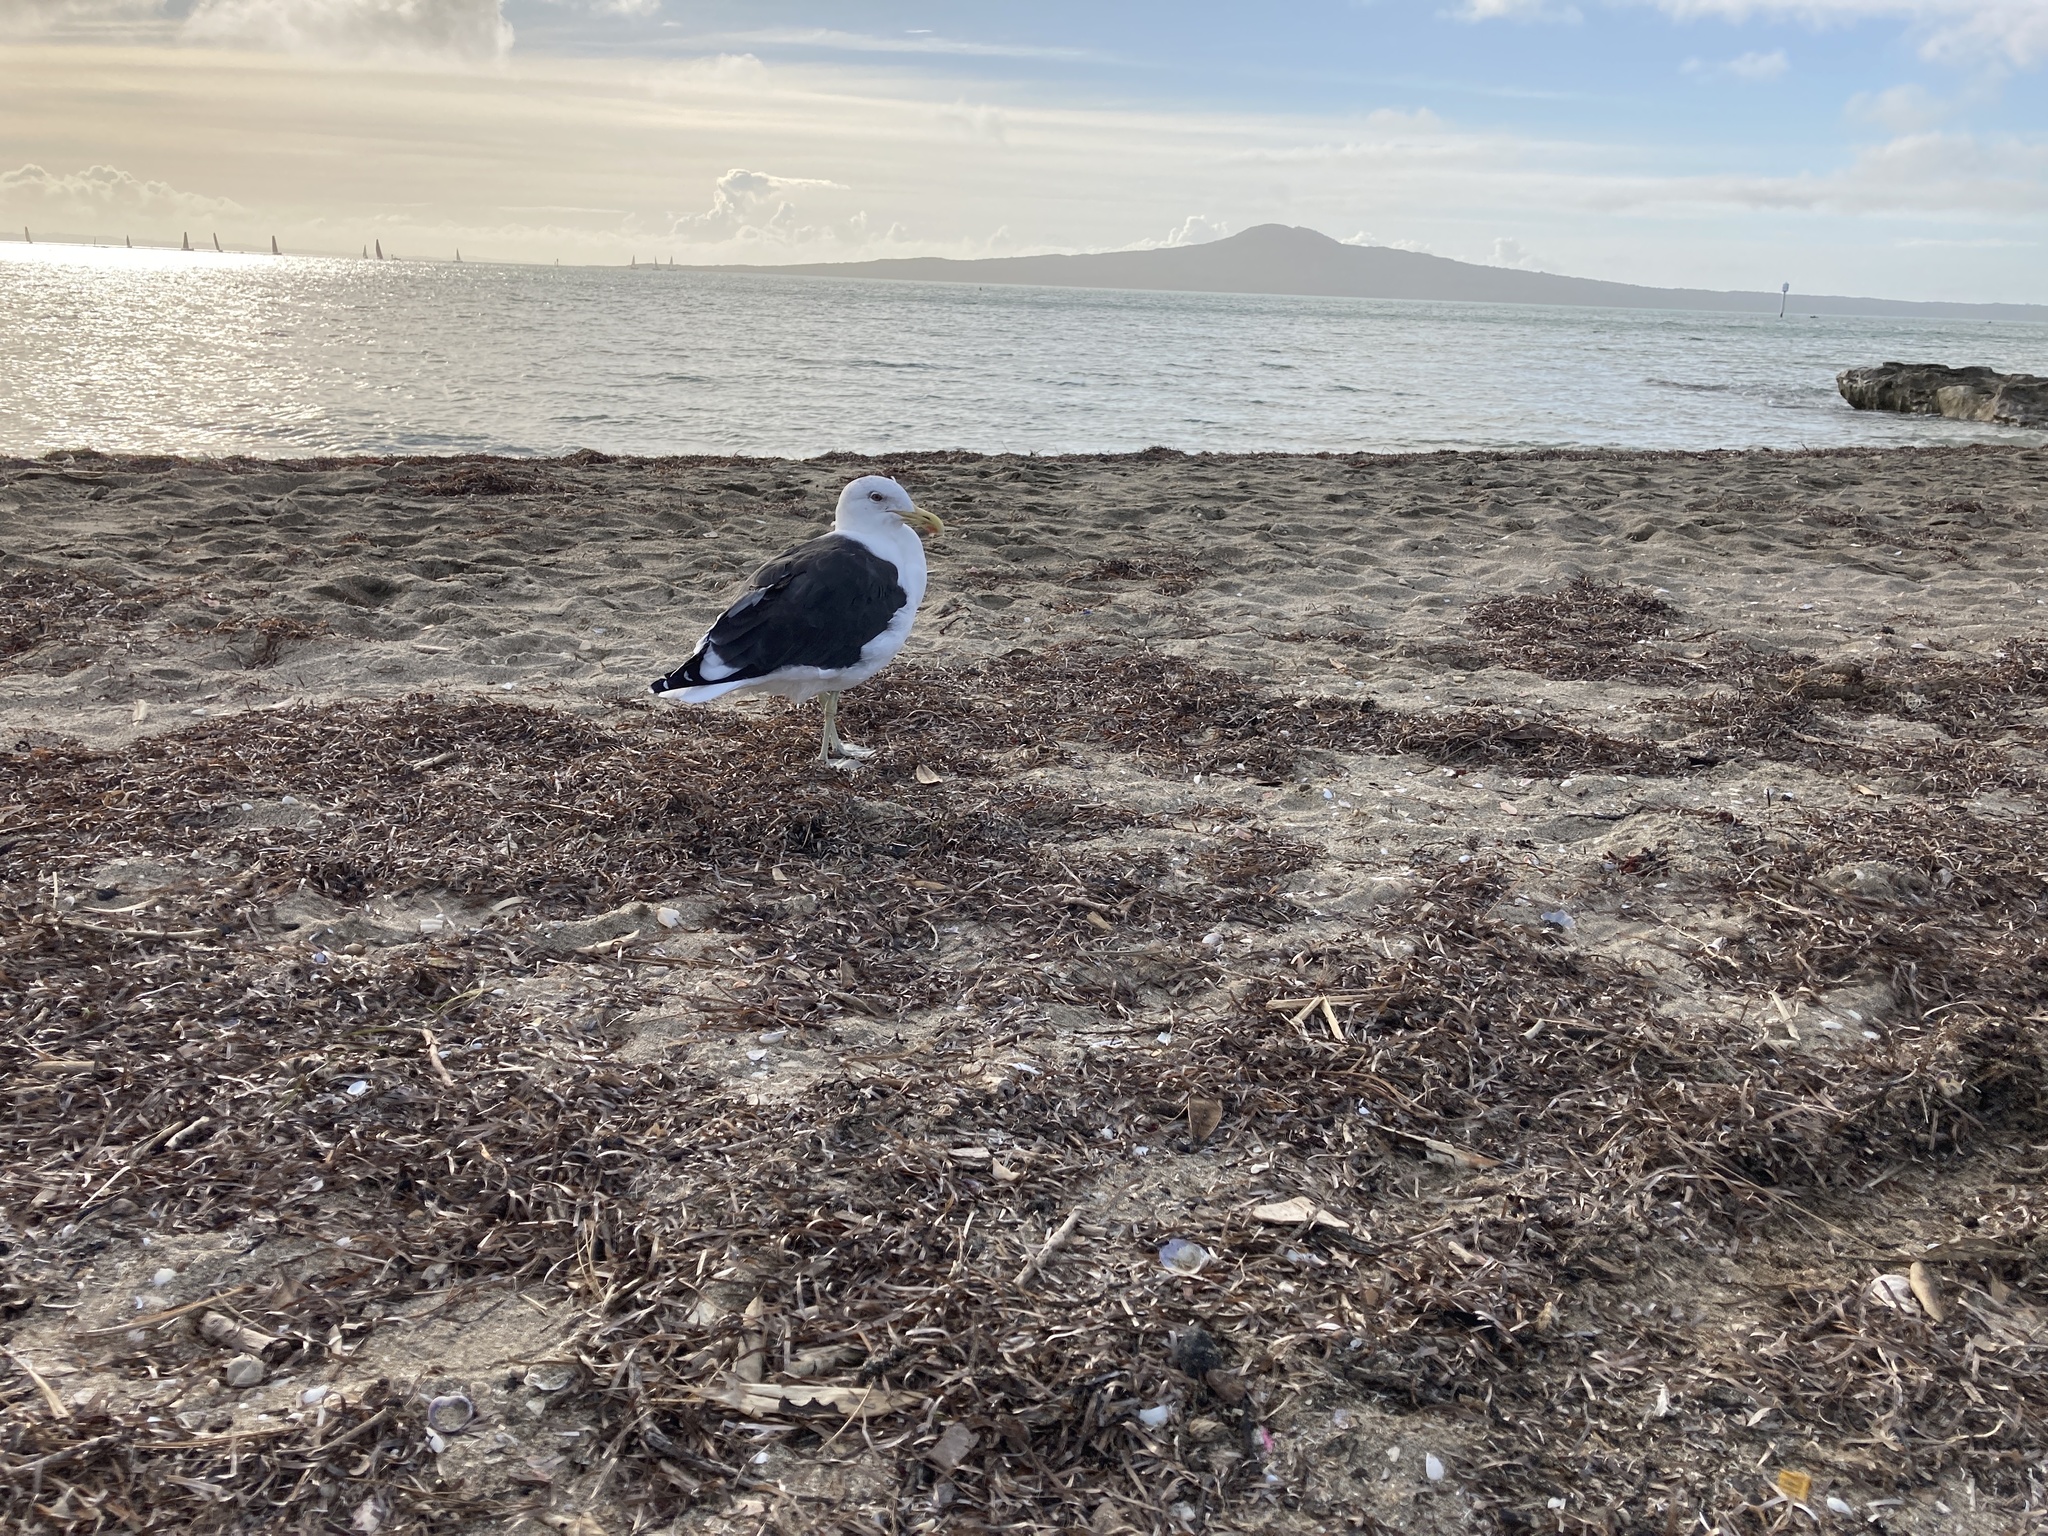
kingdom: Animalia
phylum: Chordata
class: Aves
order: Charadriiformes
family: Laridae
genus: Larus
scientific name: Larus dominicanus
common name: Kelp gull
